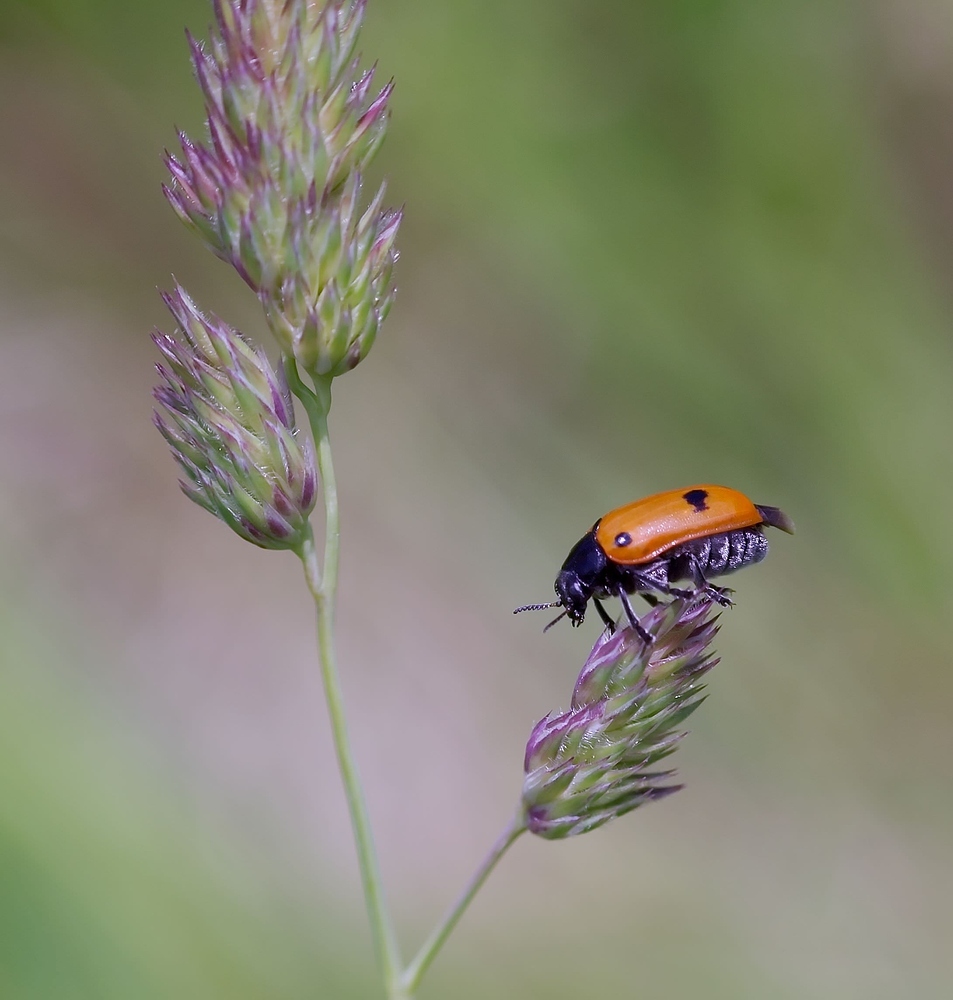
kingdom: Animalia
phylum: Arthropoda
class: Insecta
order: Coleoptera
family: Chrysomelidae
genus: Clytra
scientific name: Clytra quadripunctata
